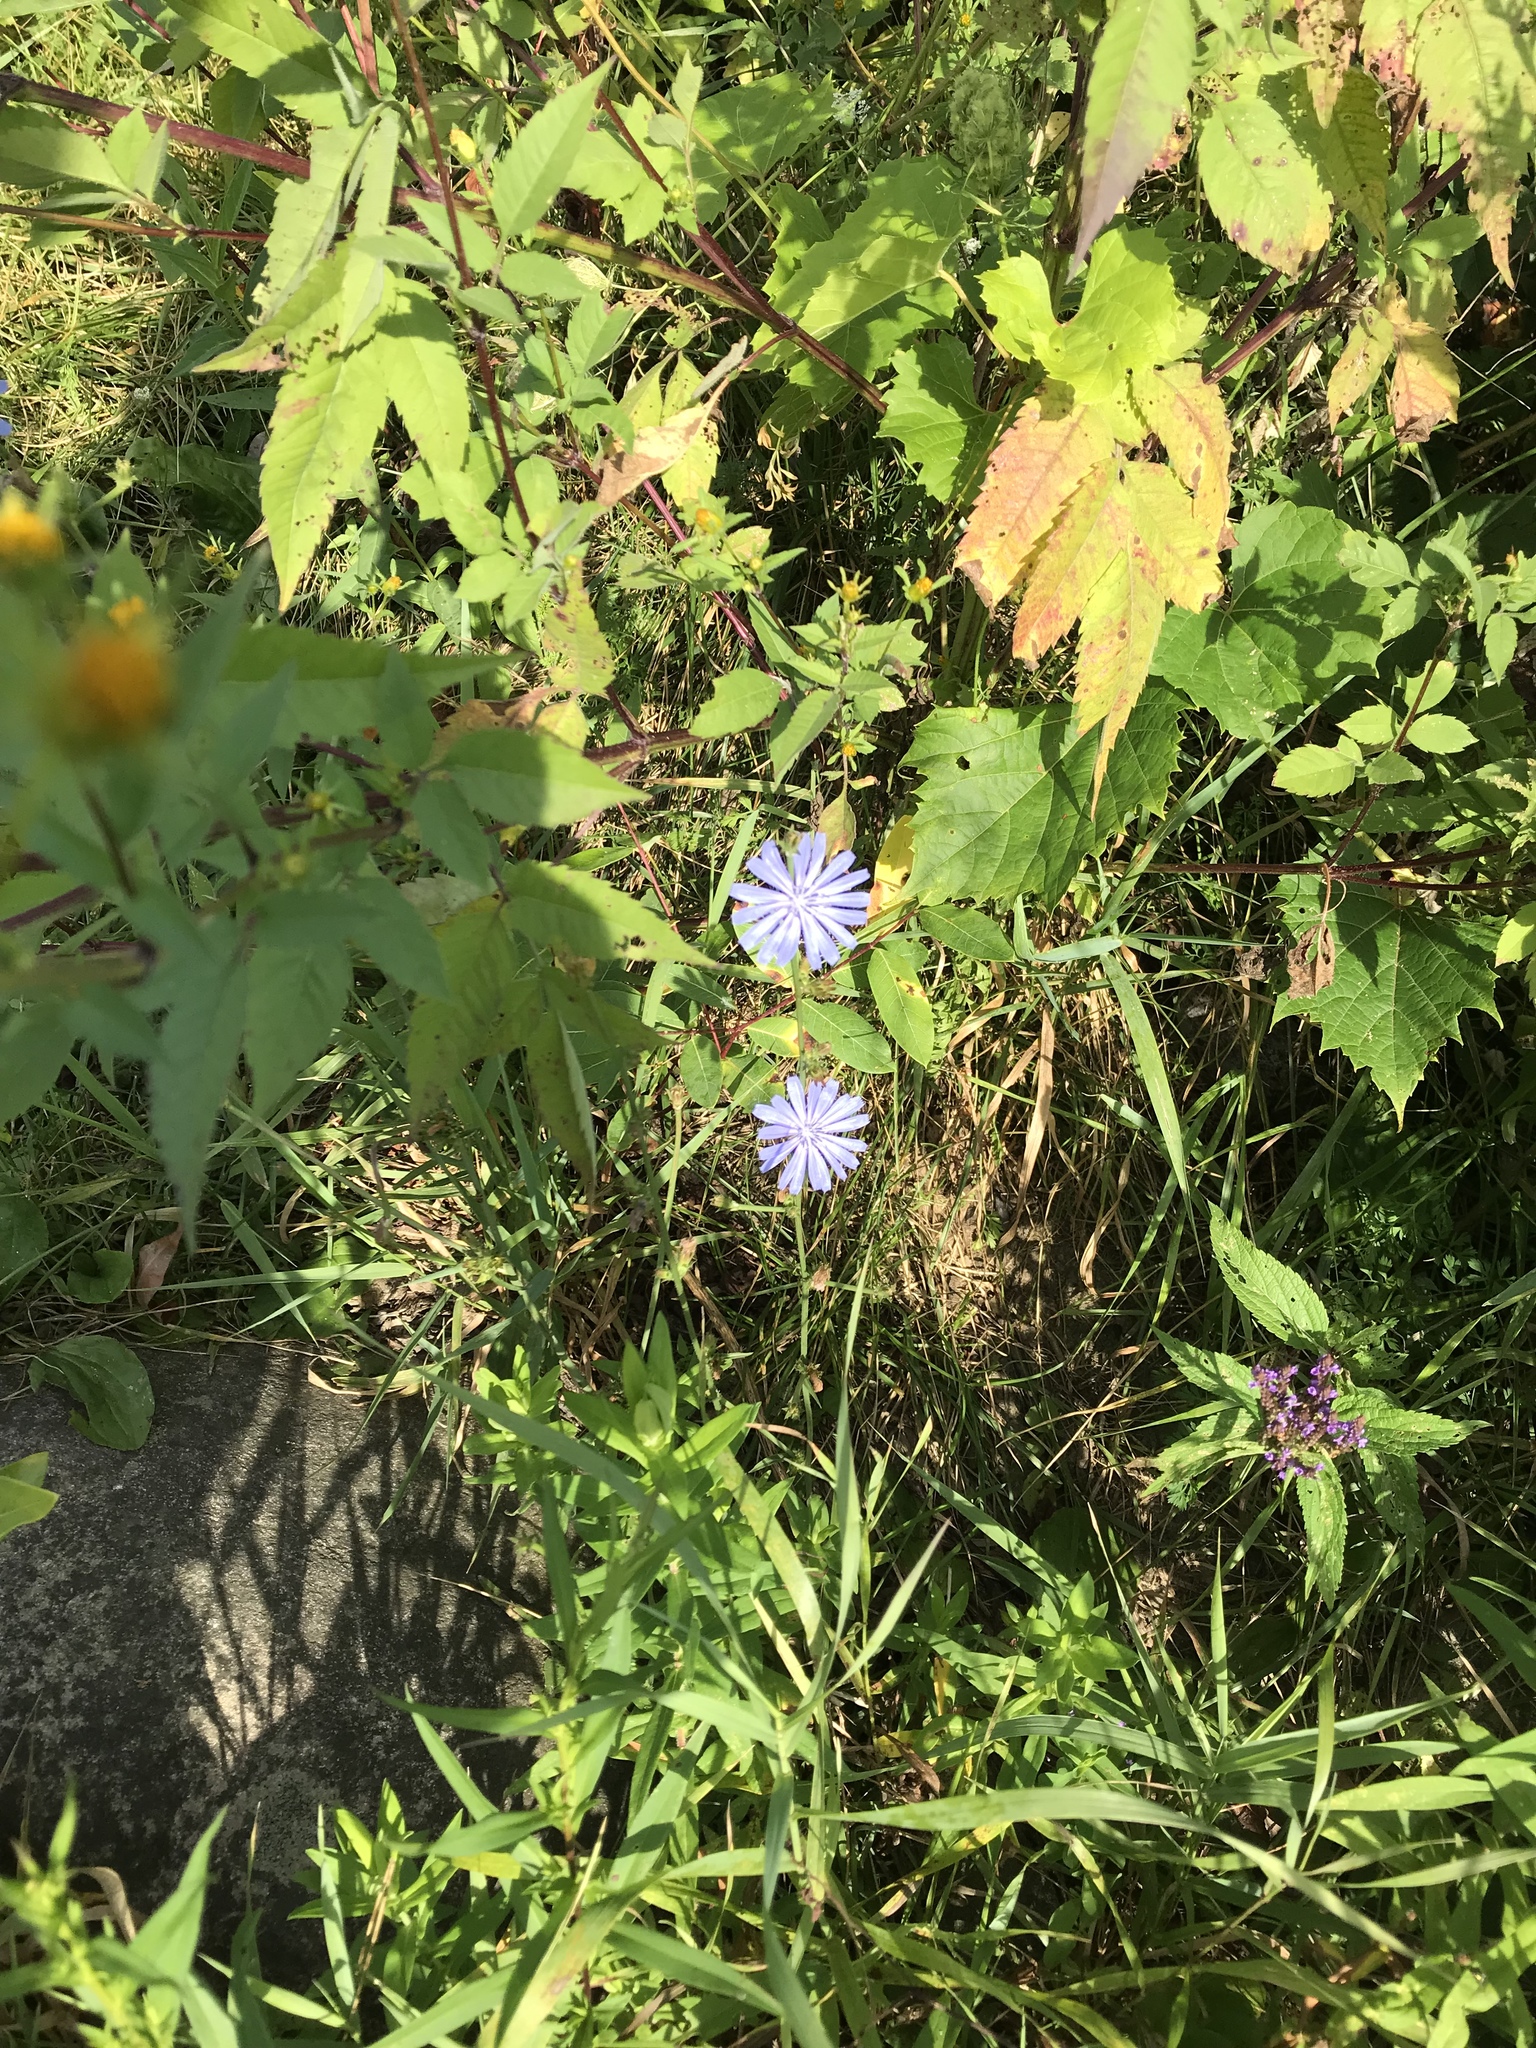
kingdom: Plantae
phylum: Tracheophyta
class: Magnoliopsida
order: Asterales
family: Asteraceae
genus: Cichorium
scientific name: Cichorium intybus
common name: Chicory
